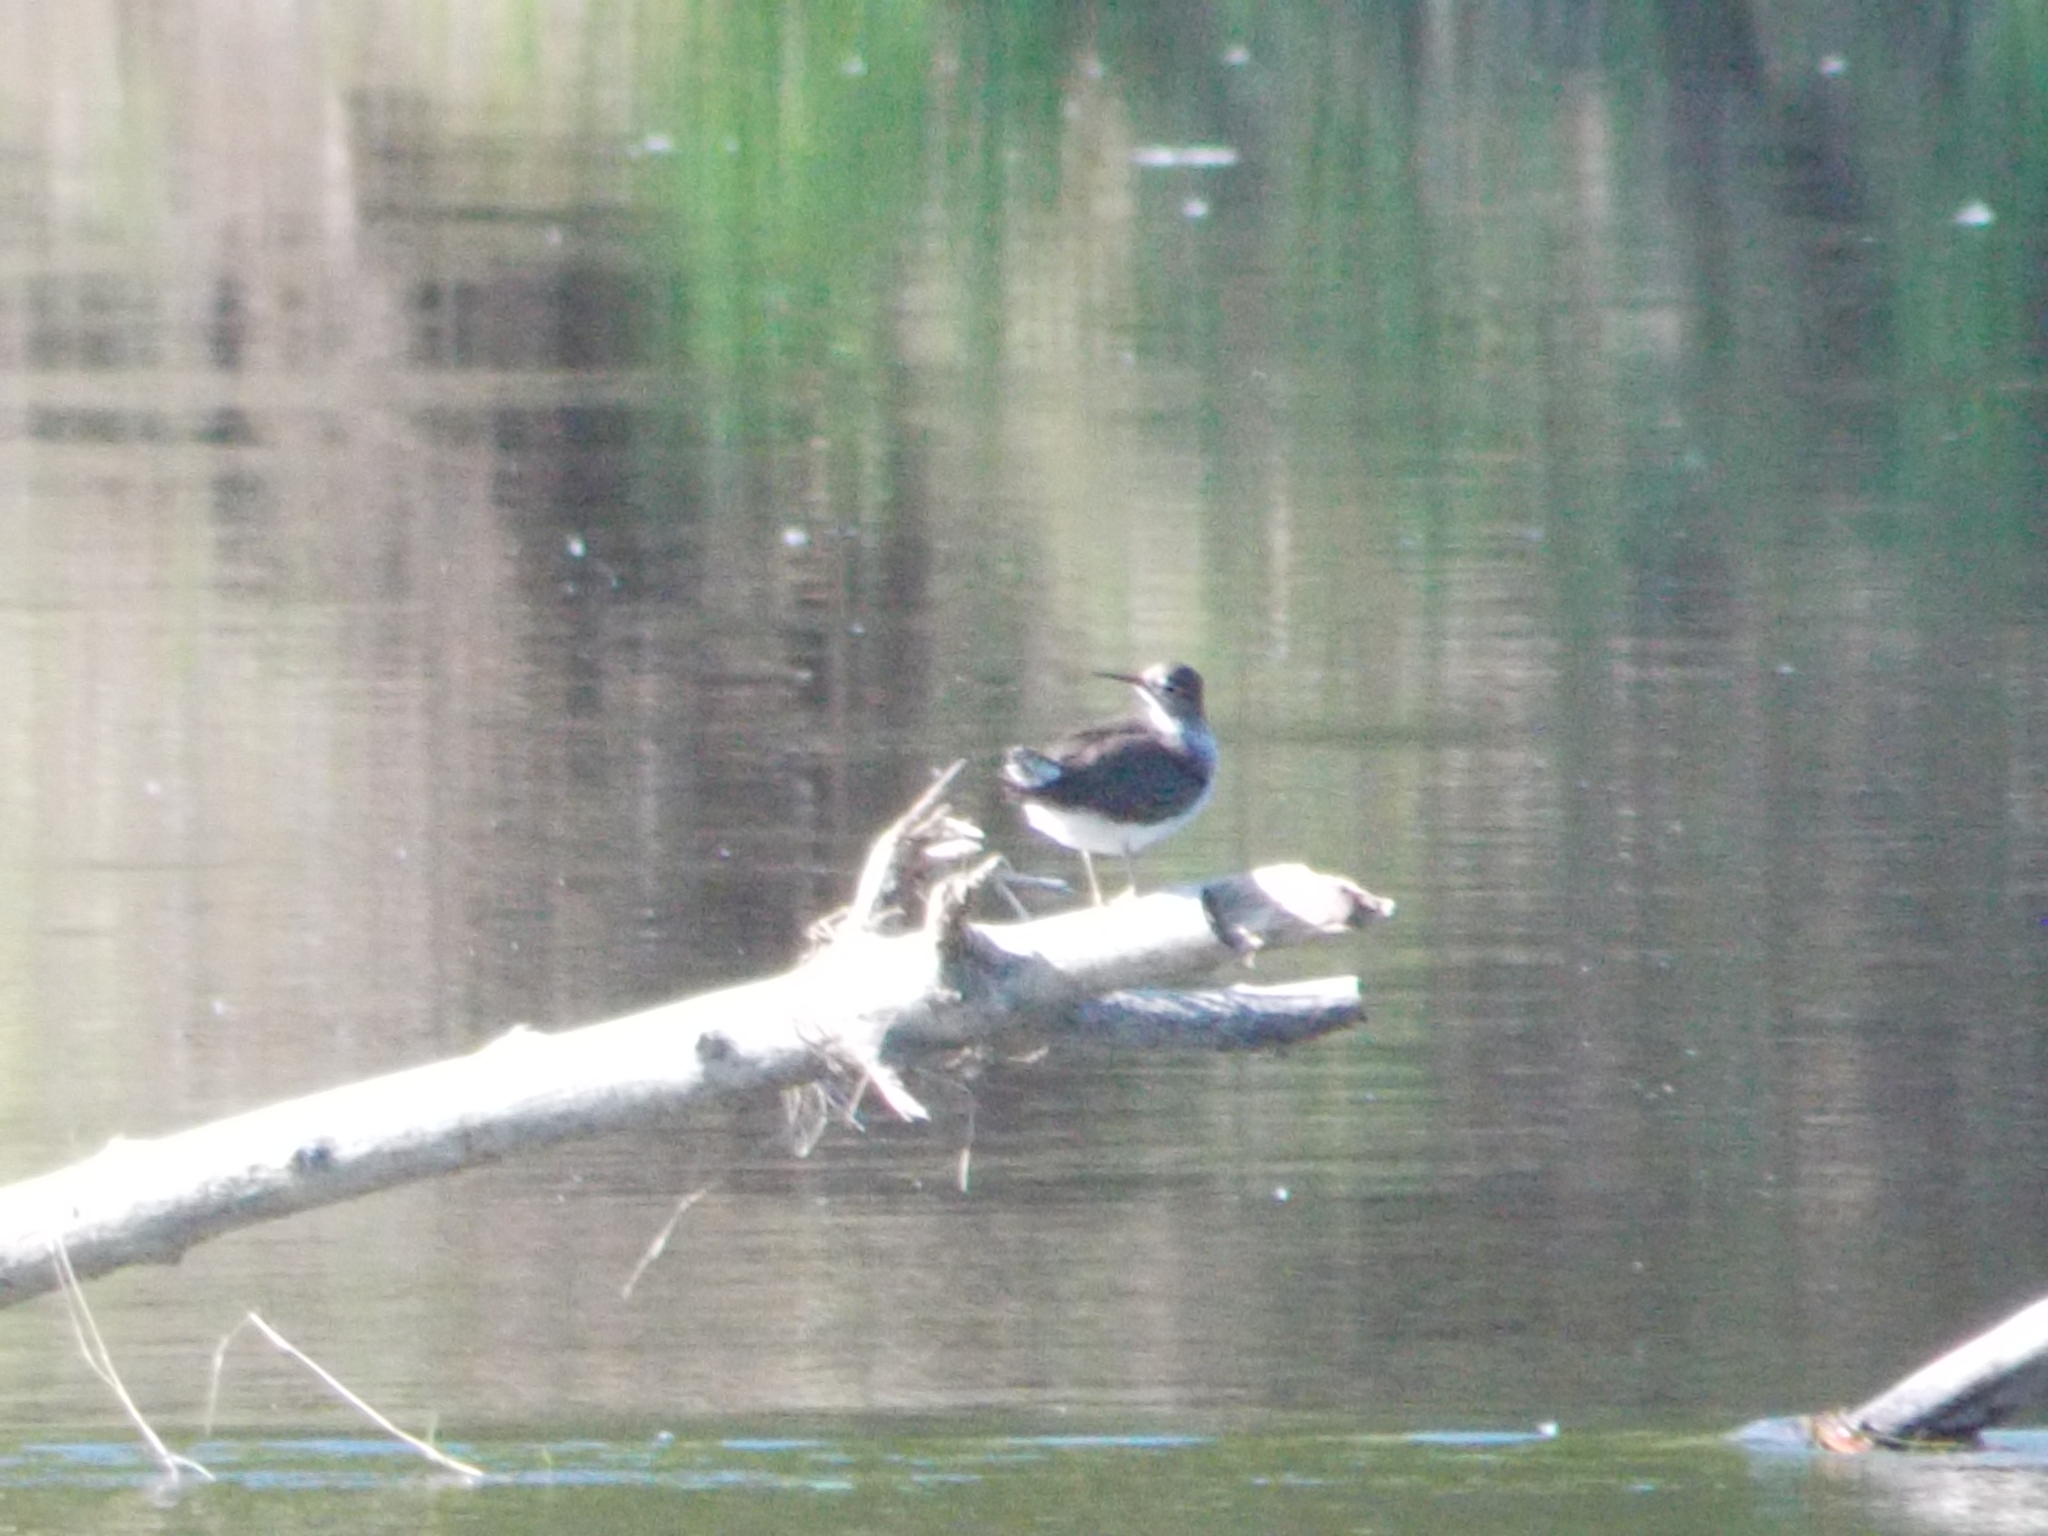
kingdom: Animalia
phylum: Chordata
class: Aves
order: Charadriiformes
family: Scolopacidae
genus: Tringa
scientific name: Tringa ochropus
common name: Green sandpiper
